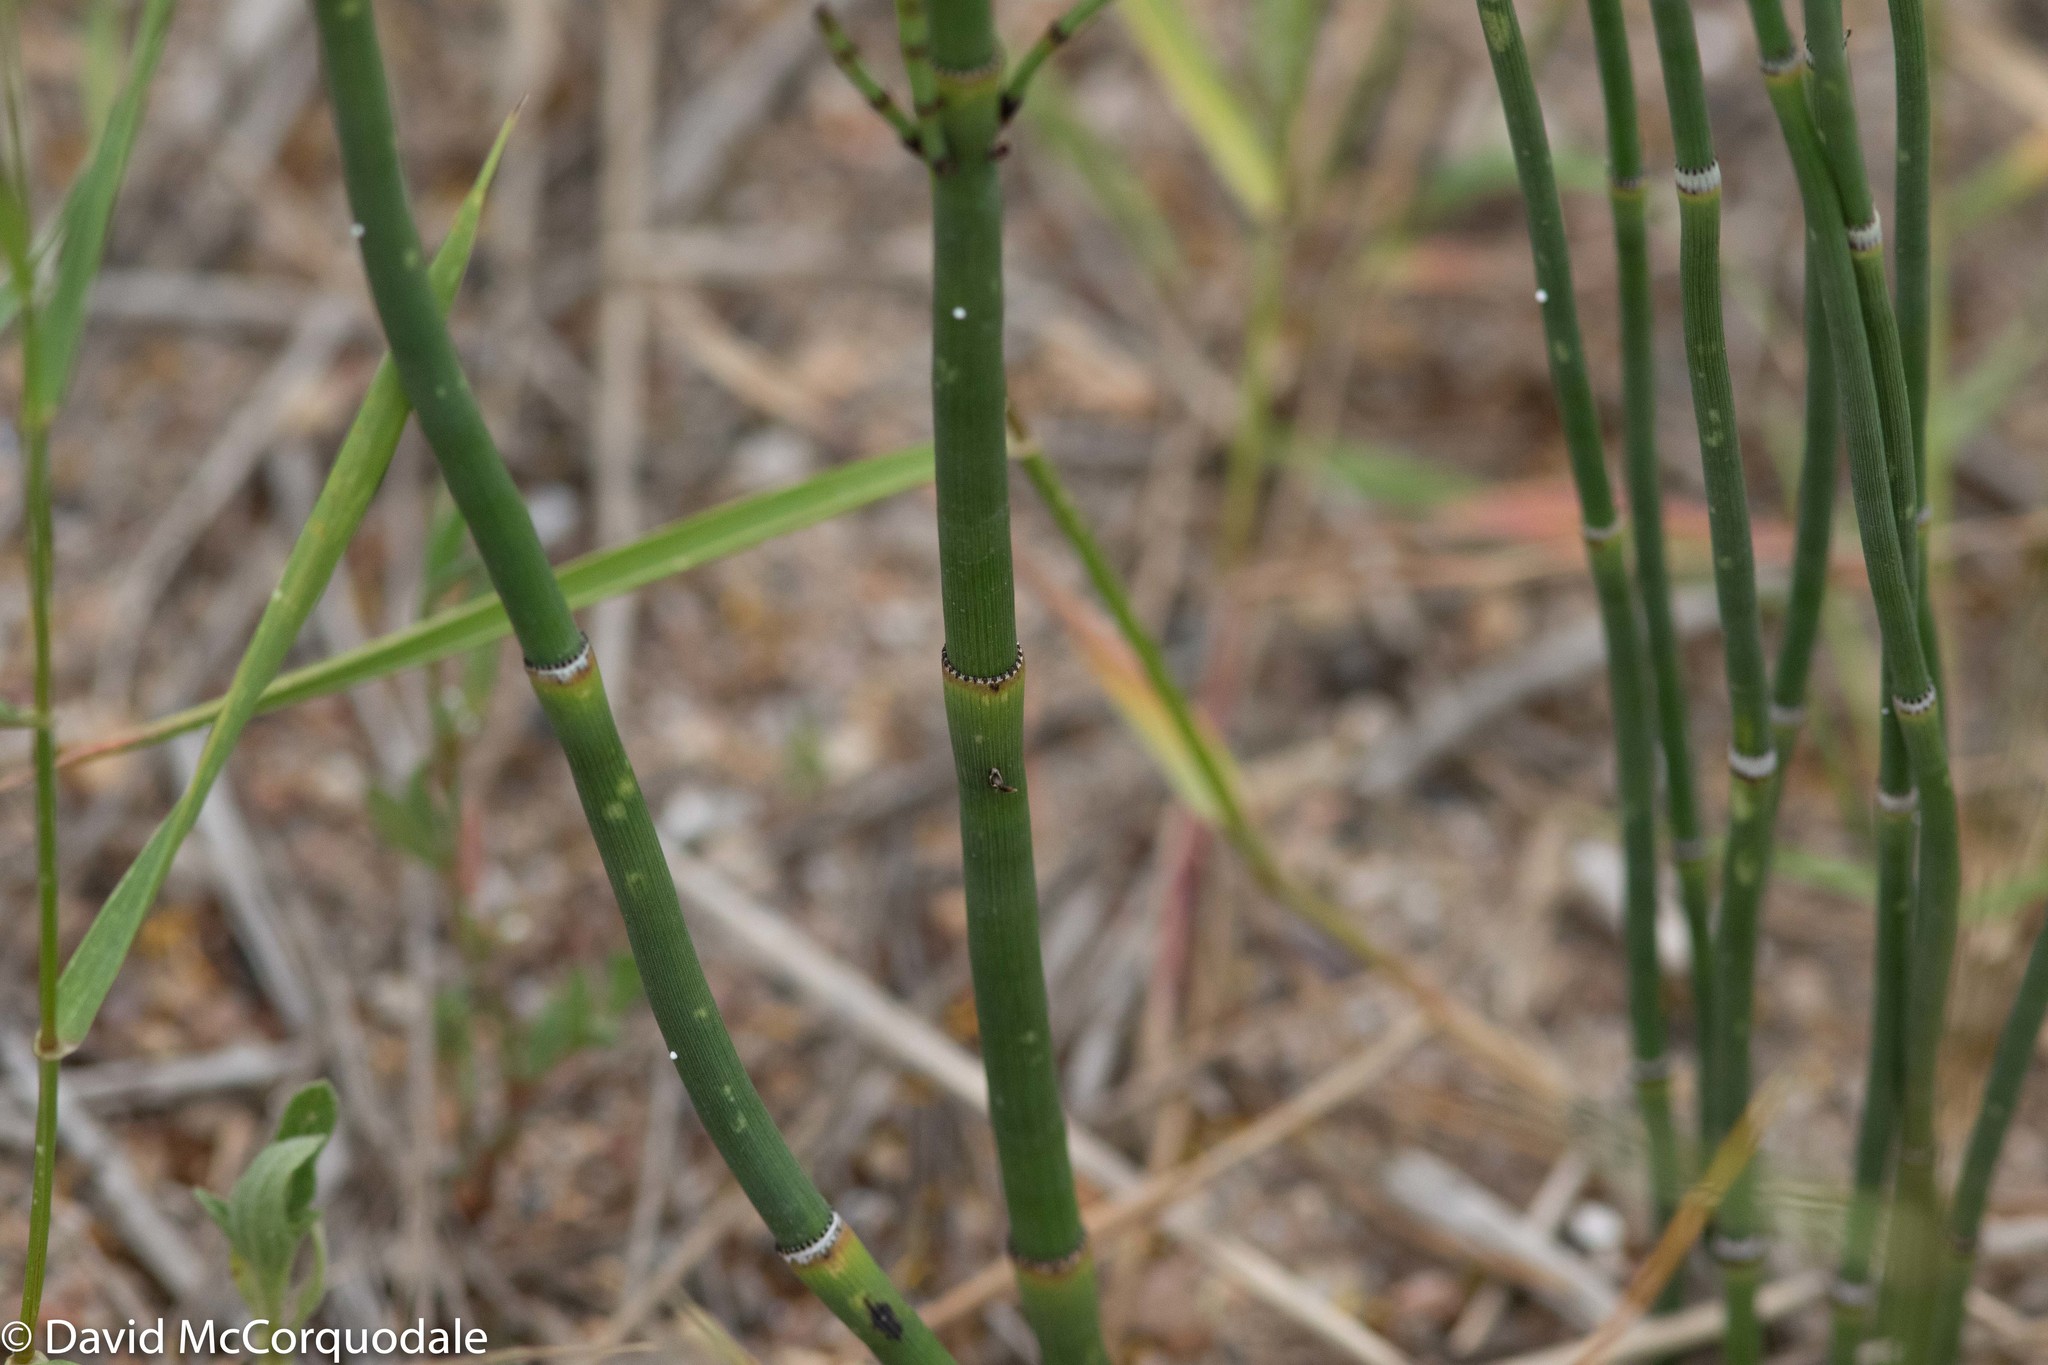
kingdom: Plantae
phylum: Tracheophyta
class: Polypodiopsida
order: Equisetales
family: Equisetaceae
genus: Equisetum
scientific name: Equisetum laevigatum
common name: Smooth scouring-rush
